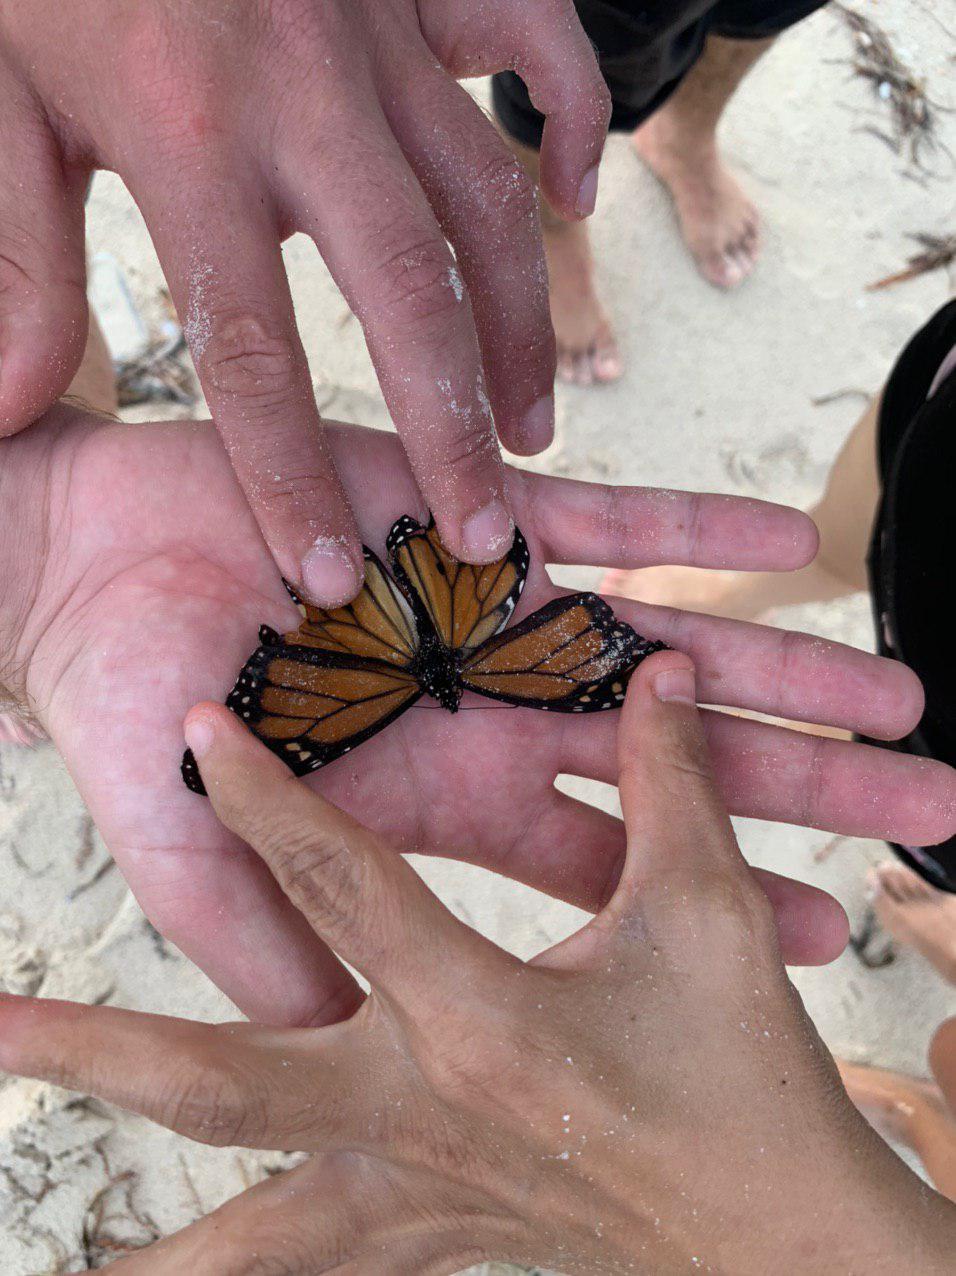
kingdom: Animalia
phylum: Arthropoda
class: Insecta
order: Lepidoptera
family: Nymphalidae
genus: Danaus
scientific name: Danaus plexippus
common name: Monarch
